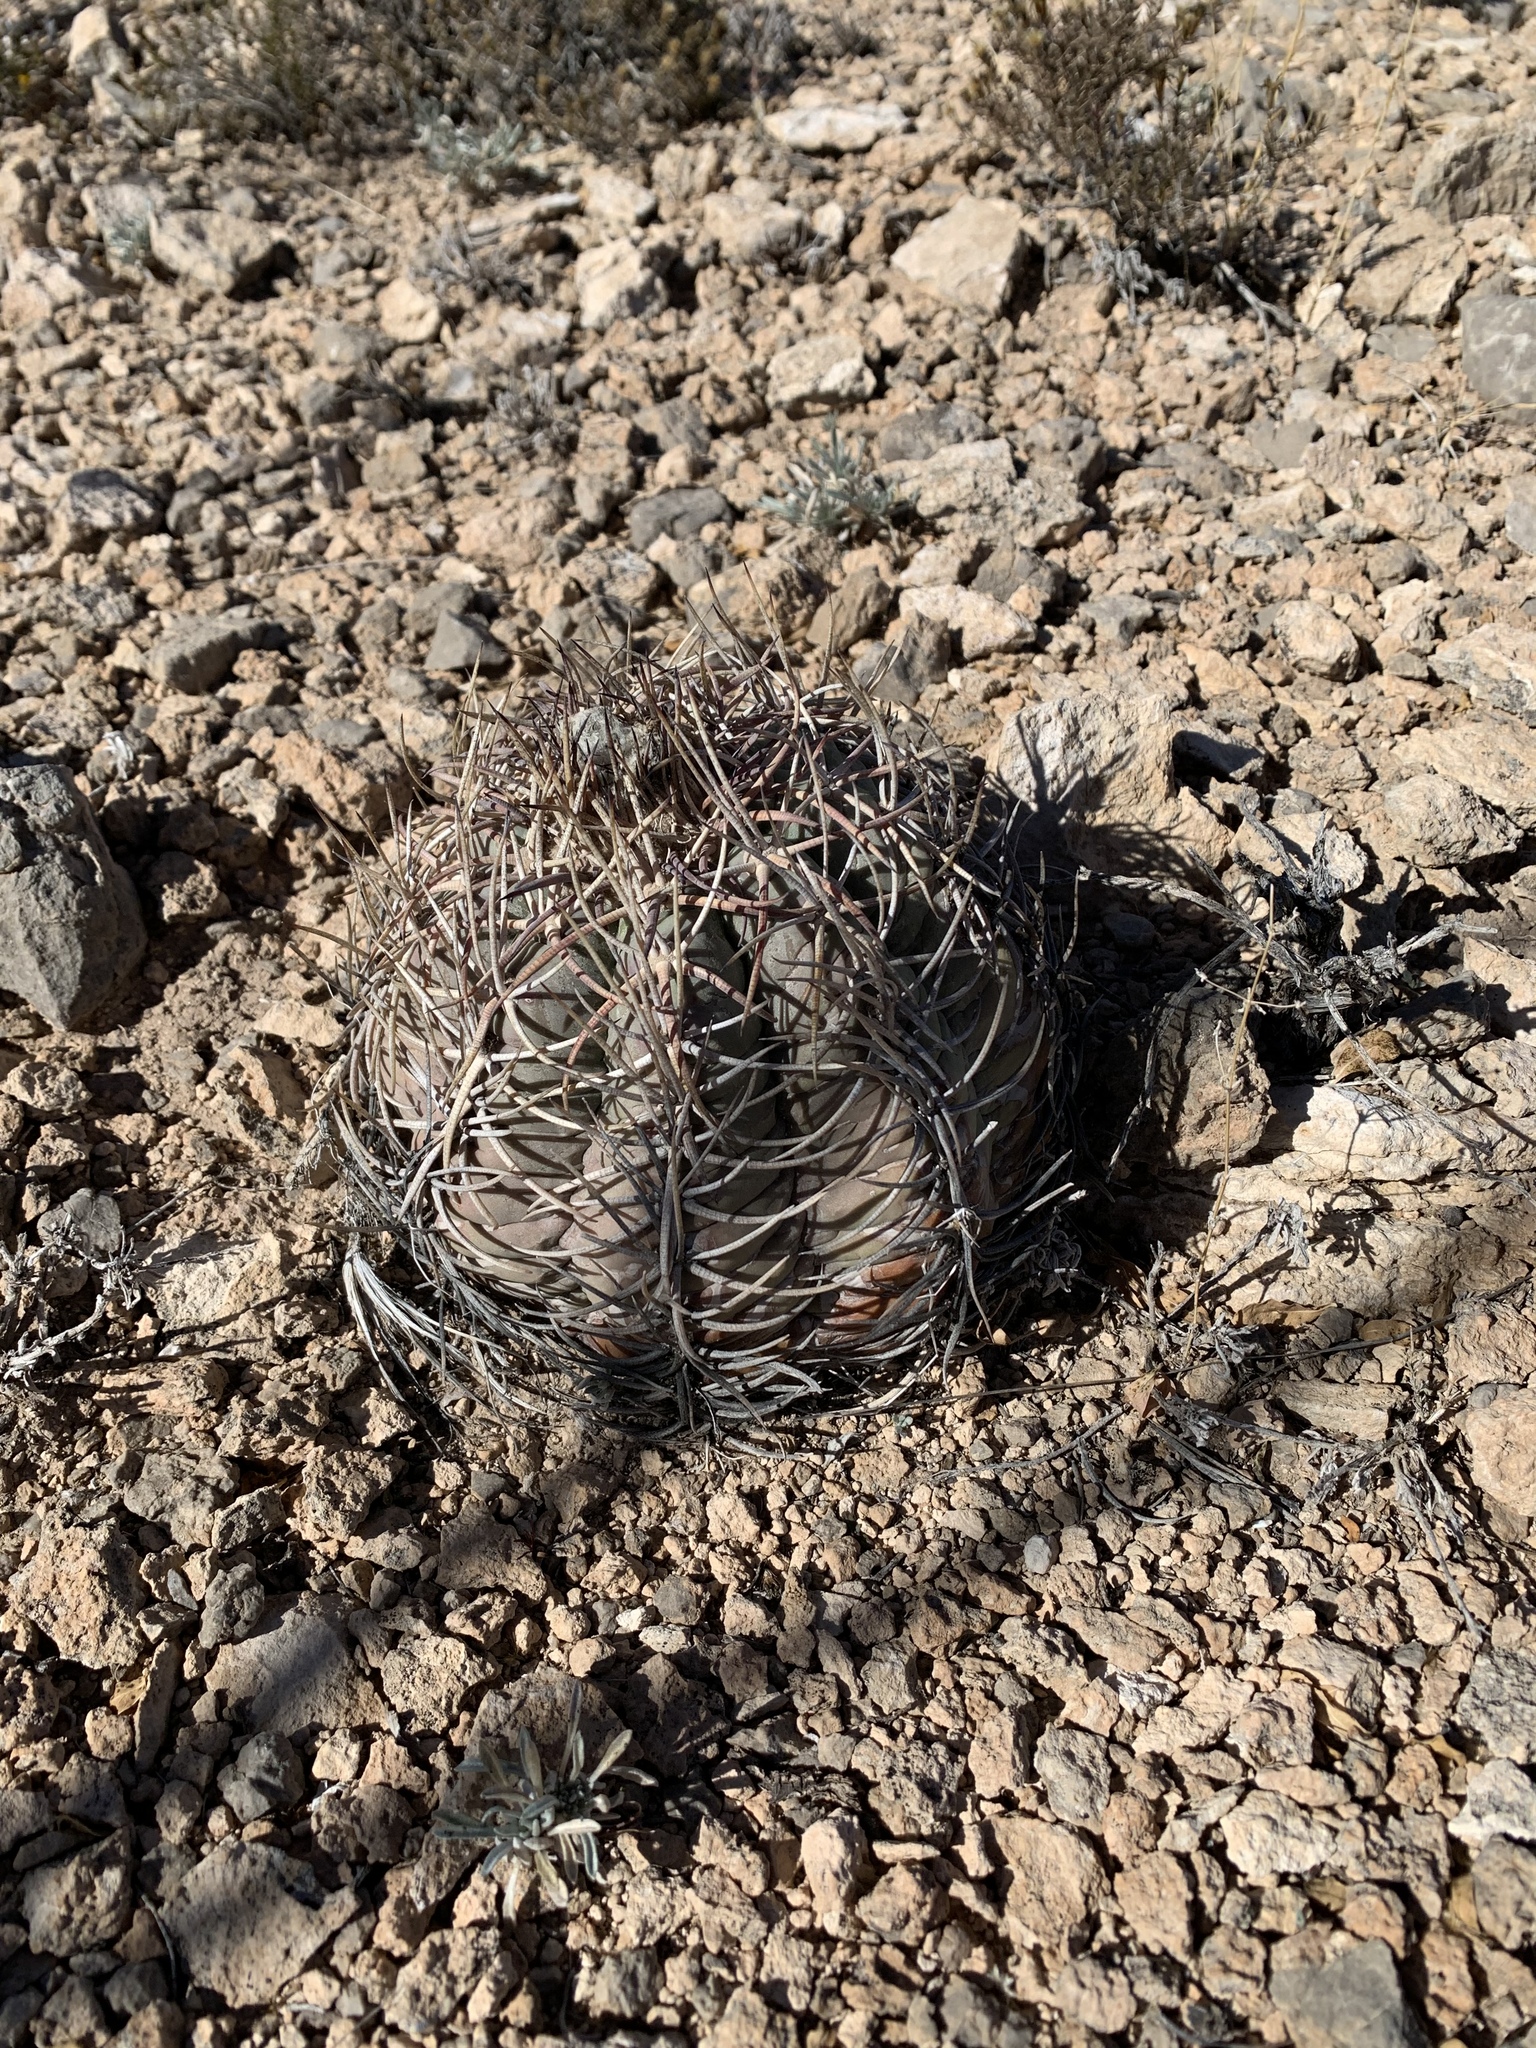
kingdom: Plantae
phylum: Tracheophyta
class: Magnoliopsida
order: Caryophyllales
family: Cactaceae
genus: Echinocactus
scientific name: Echinocactus horizonthalonius
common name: Devilshead
